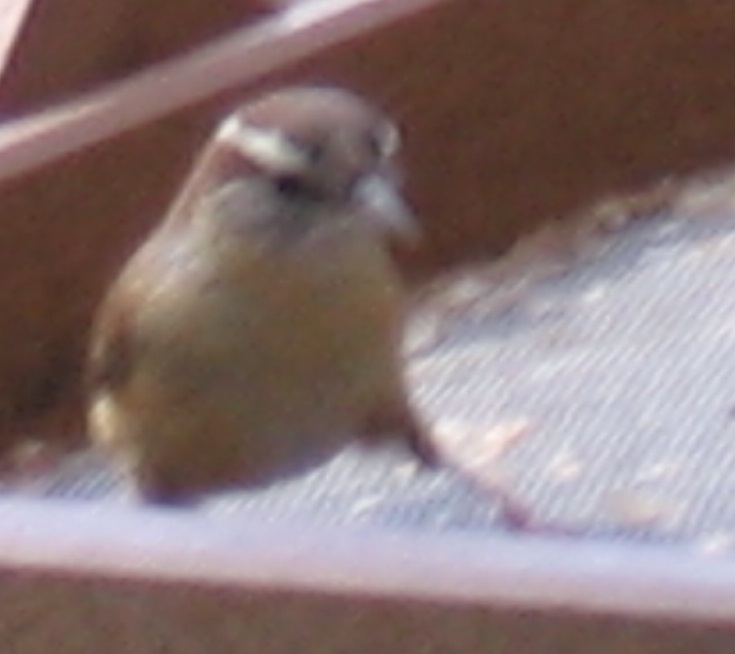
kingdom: Animalia
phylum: Chordata
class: Aves
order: Passeriformes
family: Troglodytidae
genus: Thryothorus
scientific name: Thryothorus ludovicianus
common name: Carolina wren
